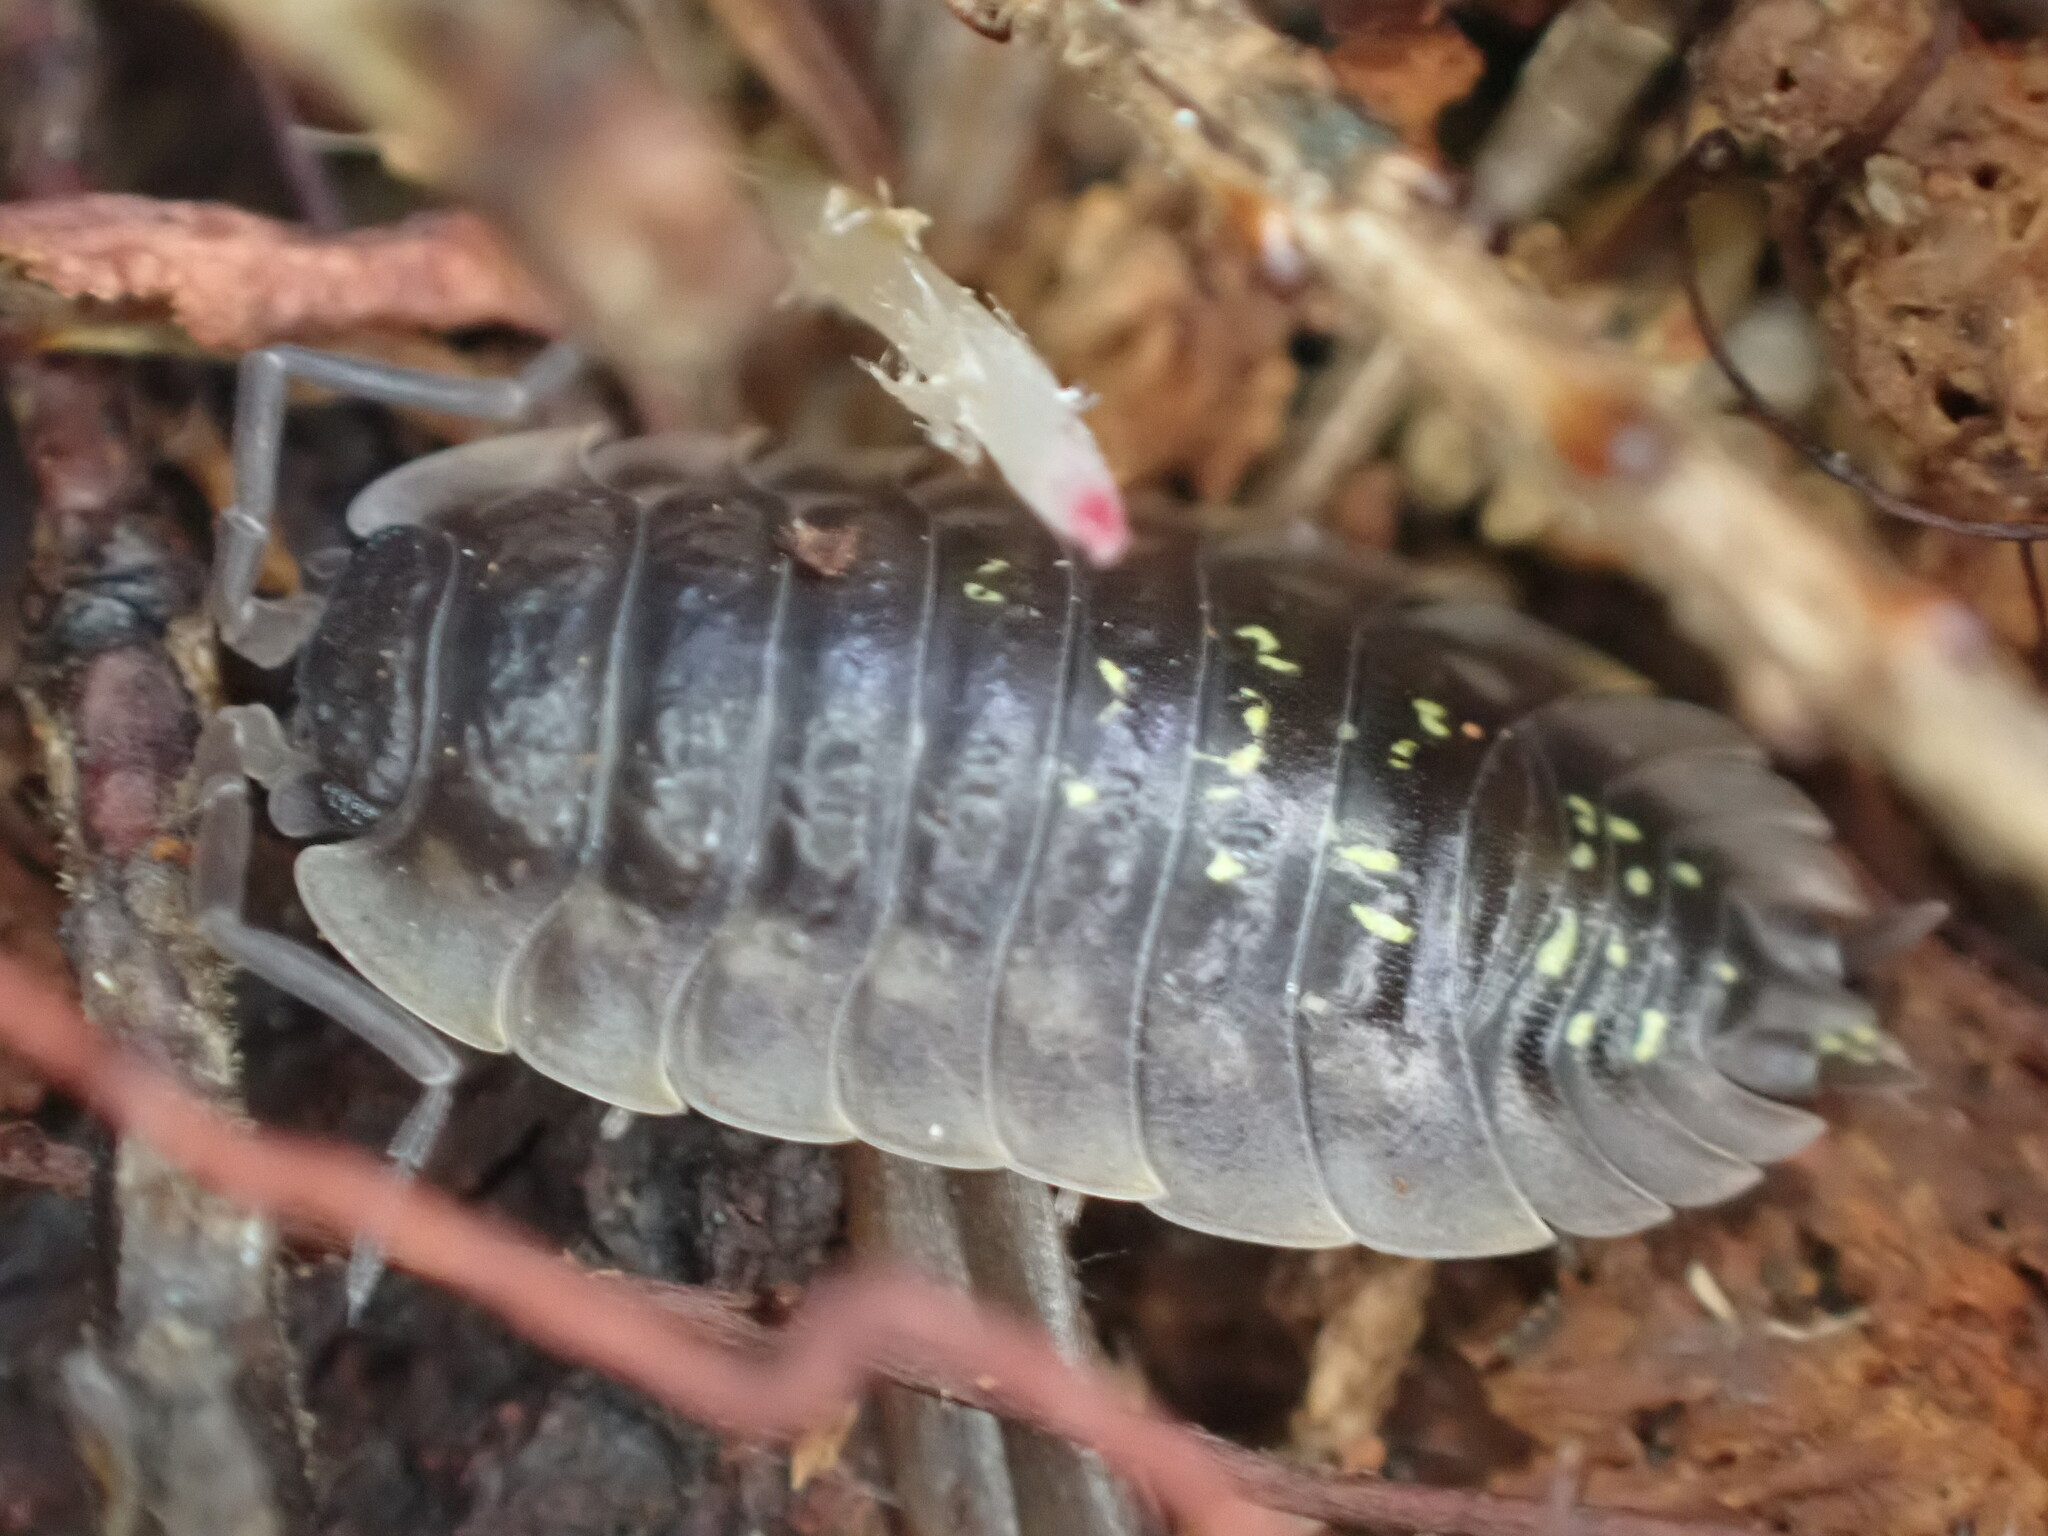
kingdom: Animalia
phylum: Arthropoda
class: Malacostraca
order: Isopoda
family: Oniscidae
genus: Oniscus
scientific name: Oniscus asellus
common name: Common shiny woodlouse
